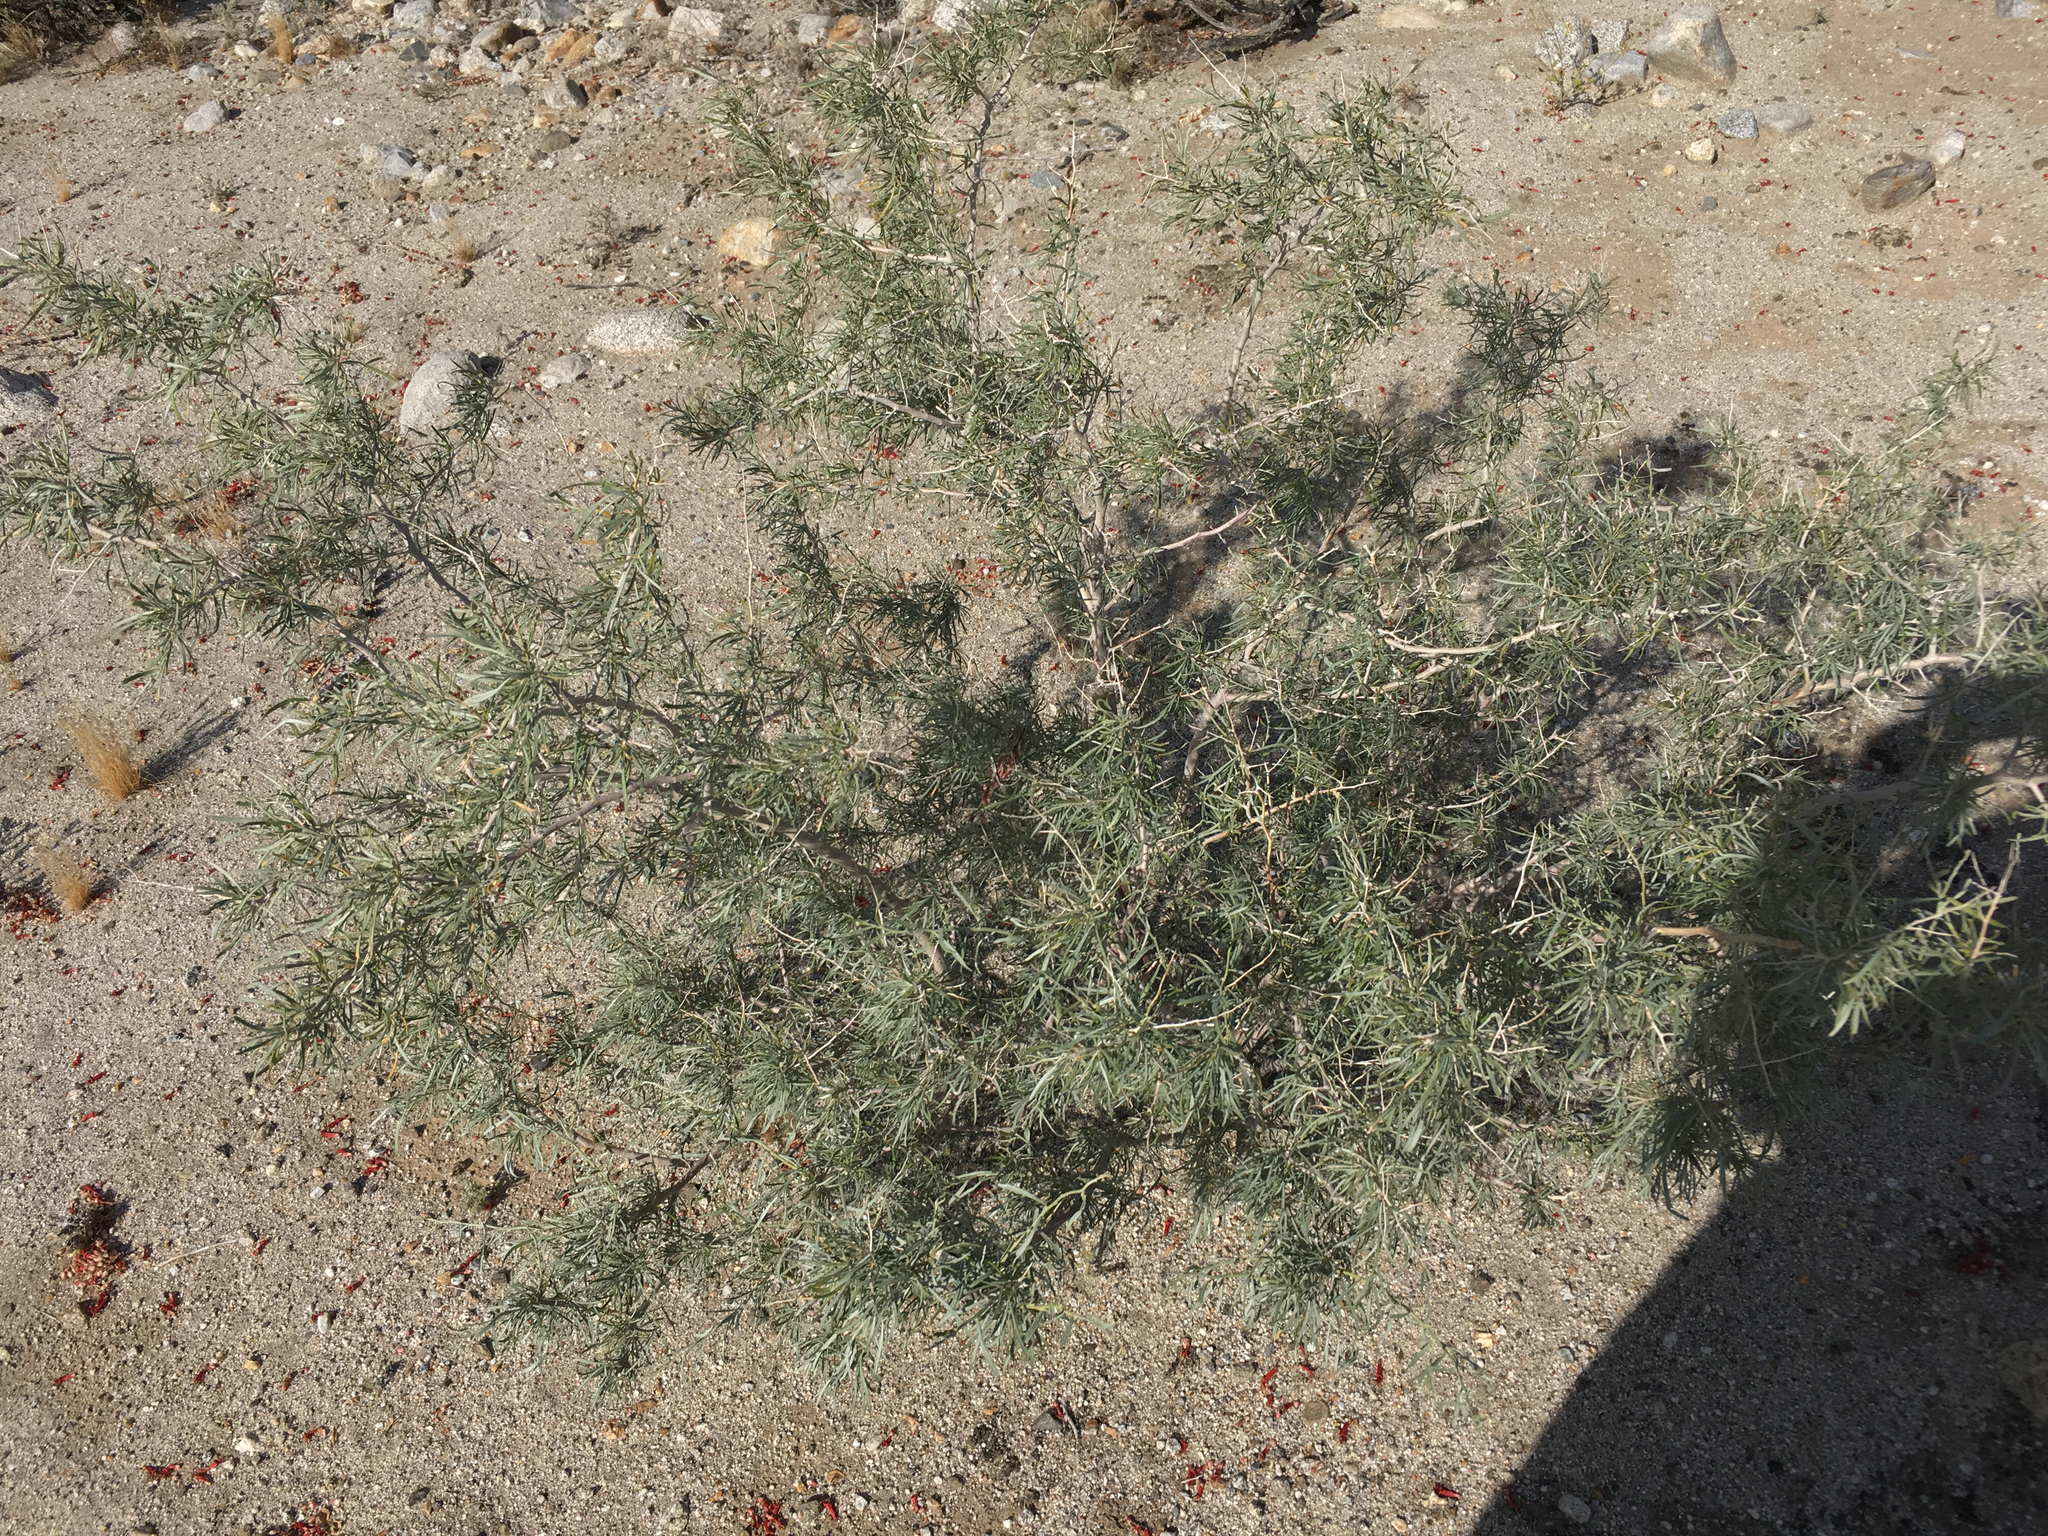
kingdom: Plantae
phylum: Tracheophyta
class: Magnoliopsida
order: Fabales
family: Fabaceae
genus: Psorothamnus
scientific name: Psorothamnus schottii
